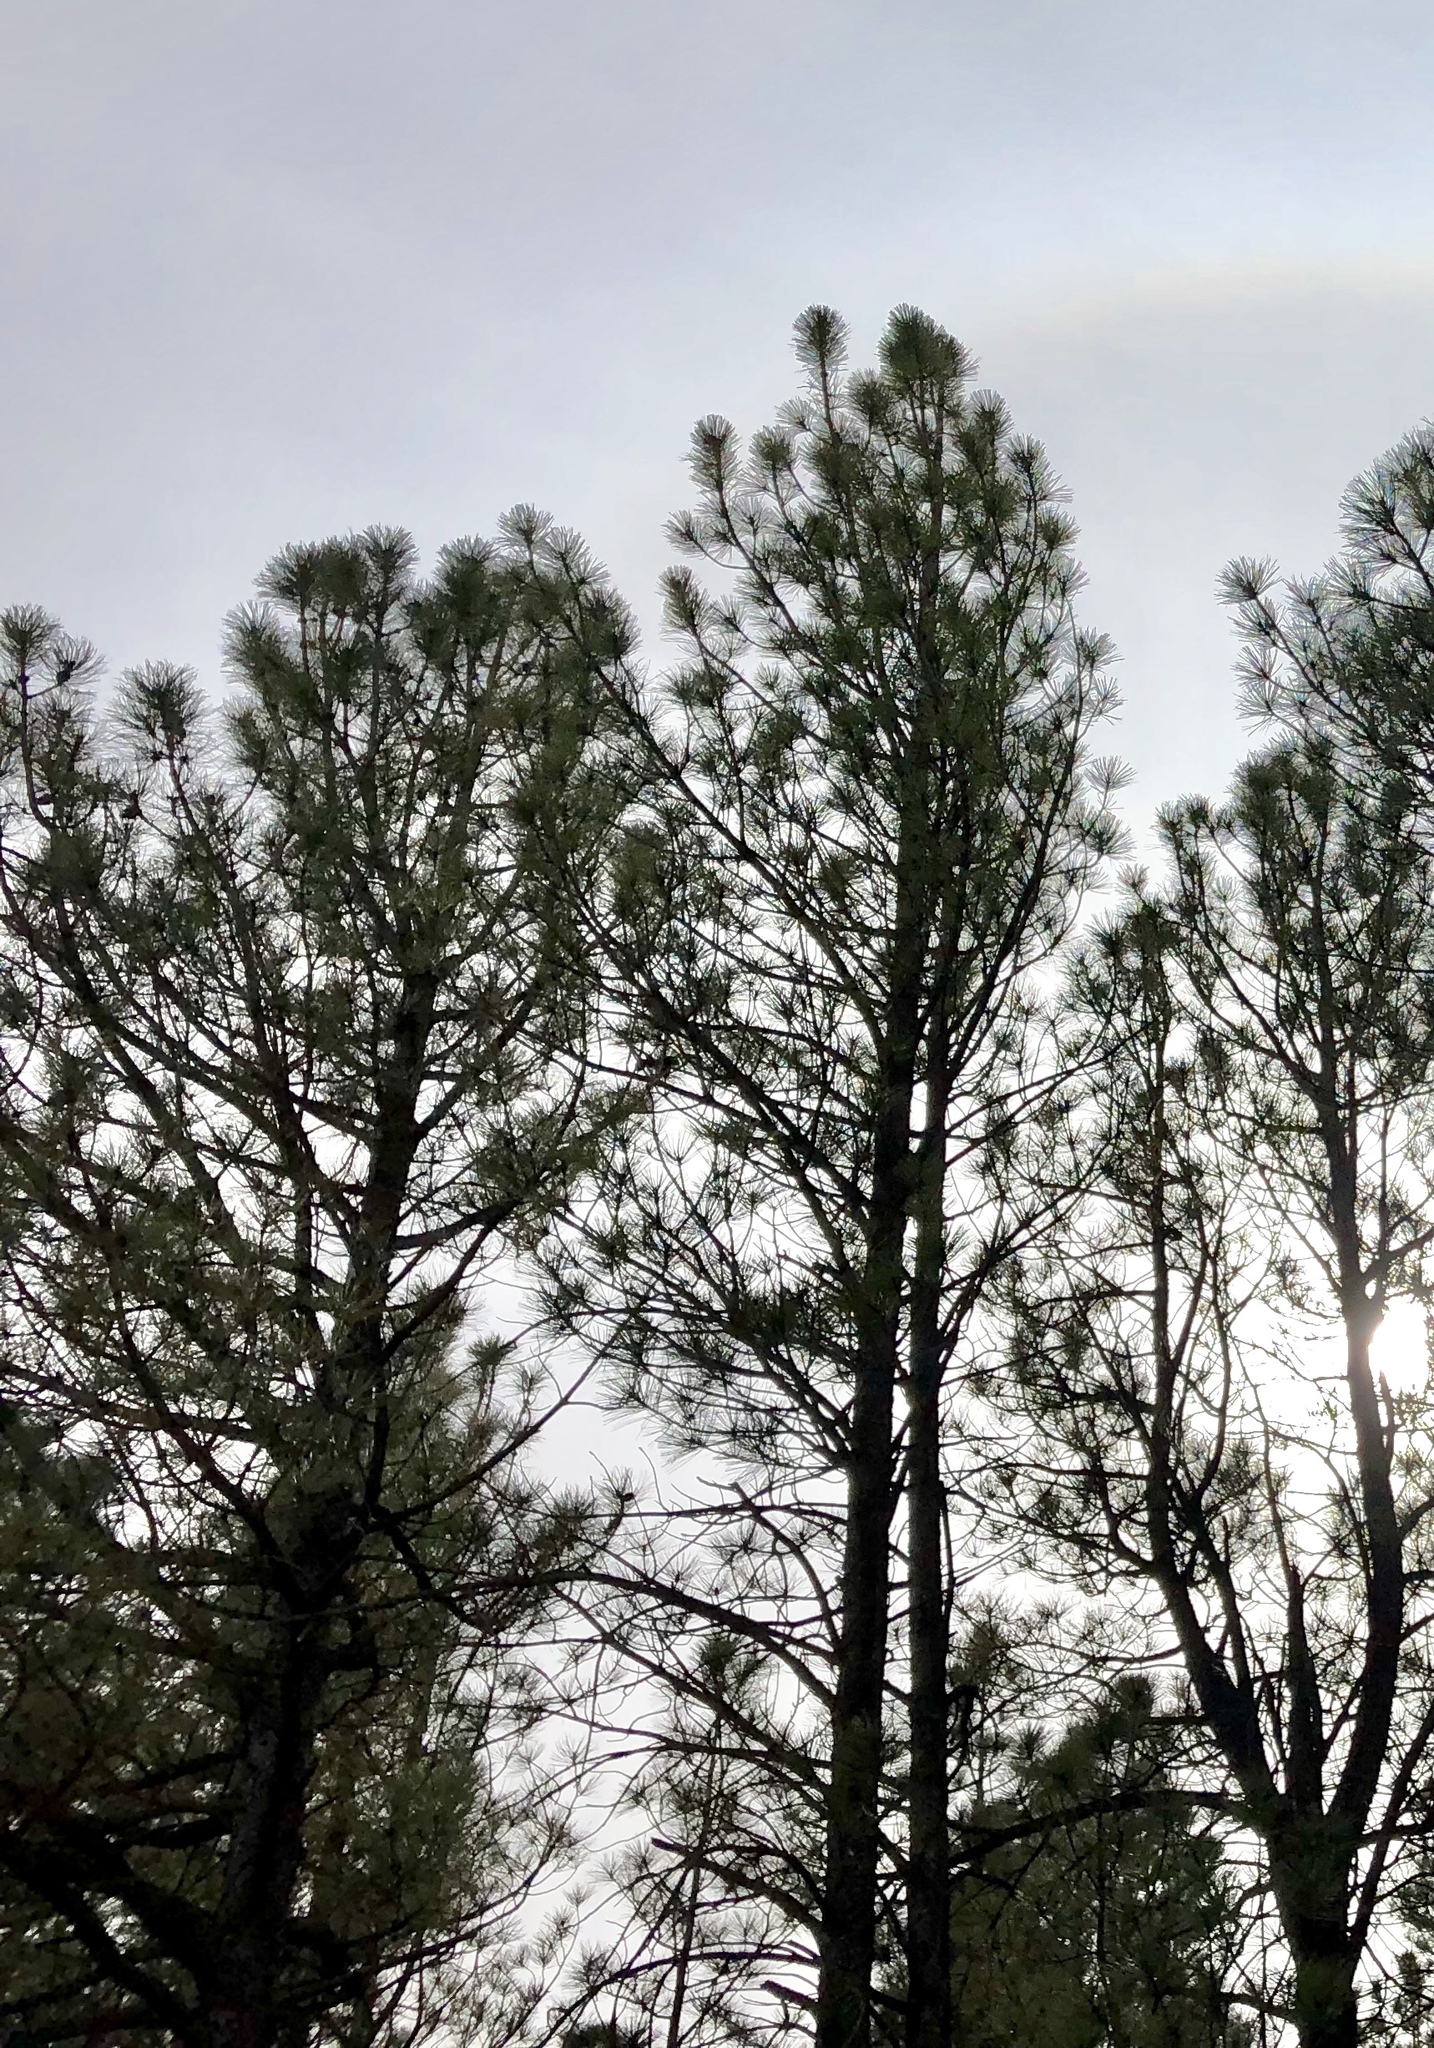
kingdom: Plantae
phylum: Tracheophyta
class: Pinopsida
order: Pinales
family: Pinaceae
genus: Pinus
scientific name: Pinus ponderosa
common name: Western yellow-pine
